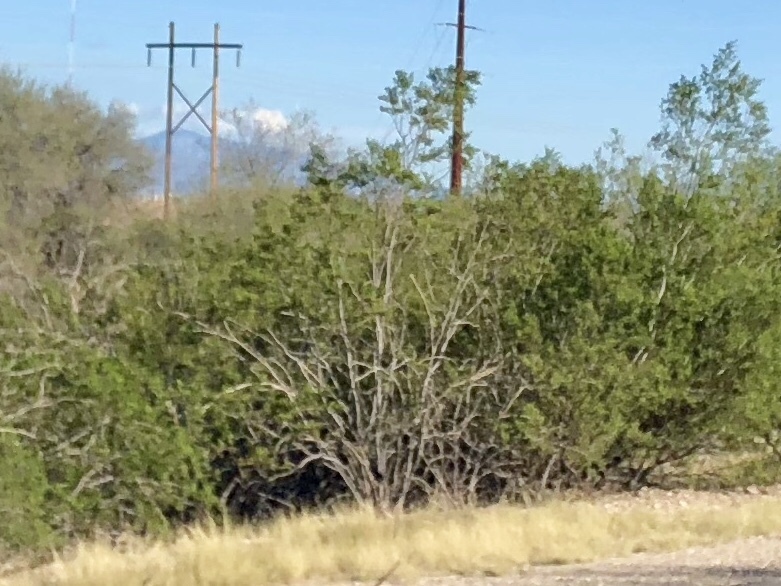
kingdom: Plantae
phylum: Tracheophyta
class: Magnoliopsida
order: Zygophyllales
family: Zygophyllaceae
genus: Larrea
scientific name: Larrea tridentata
